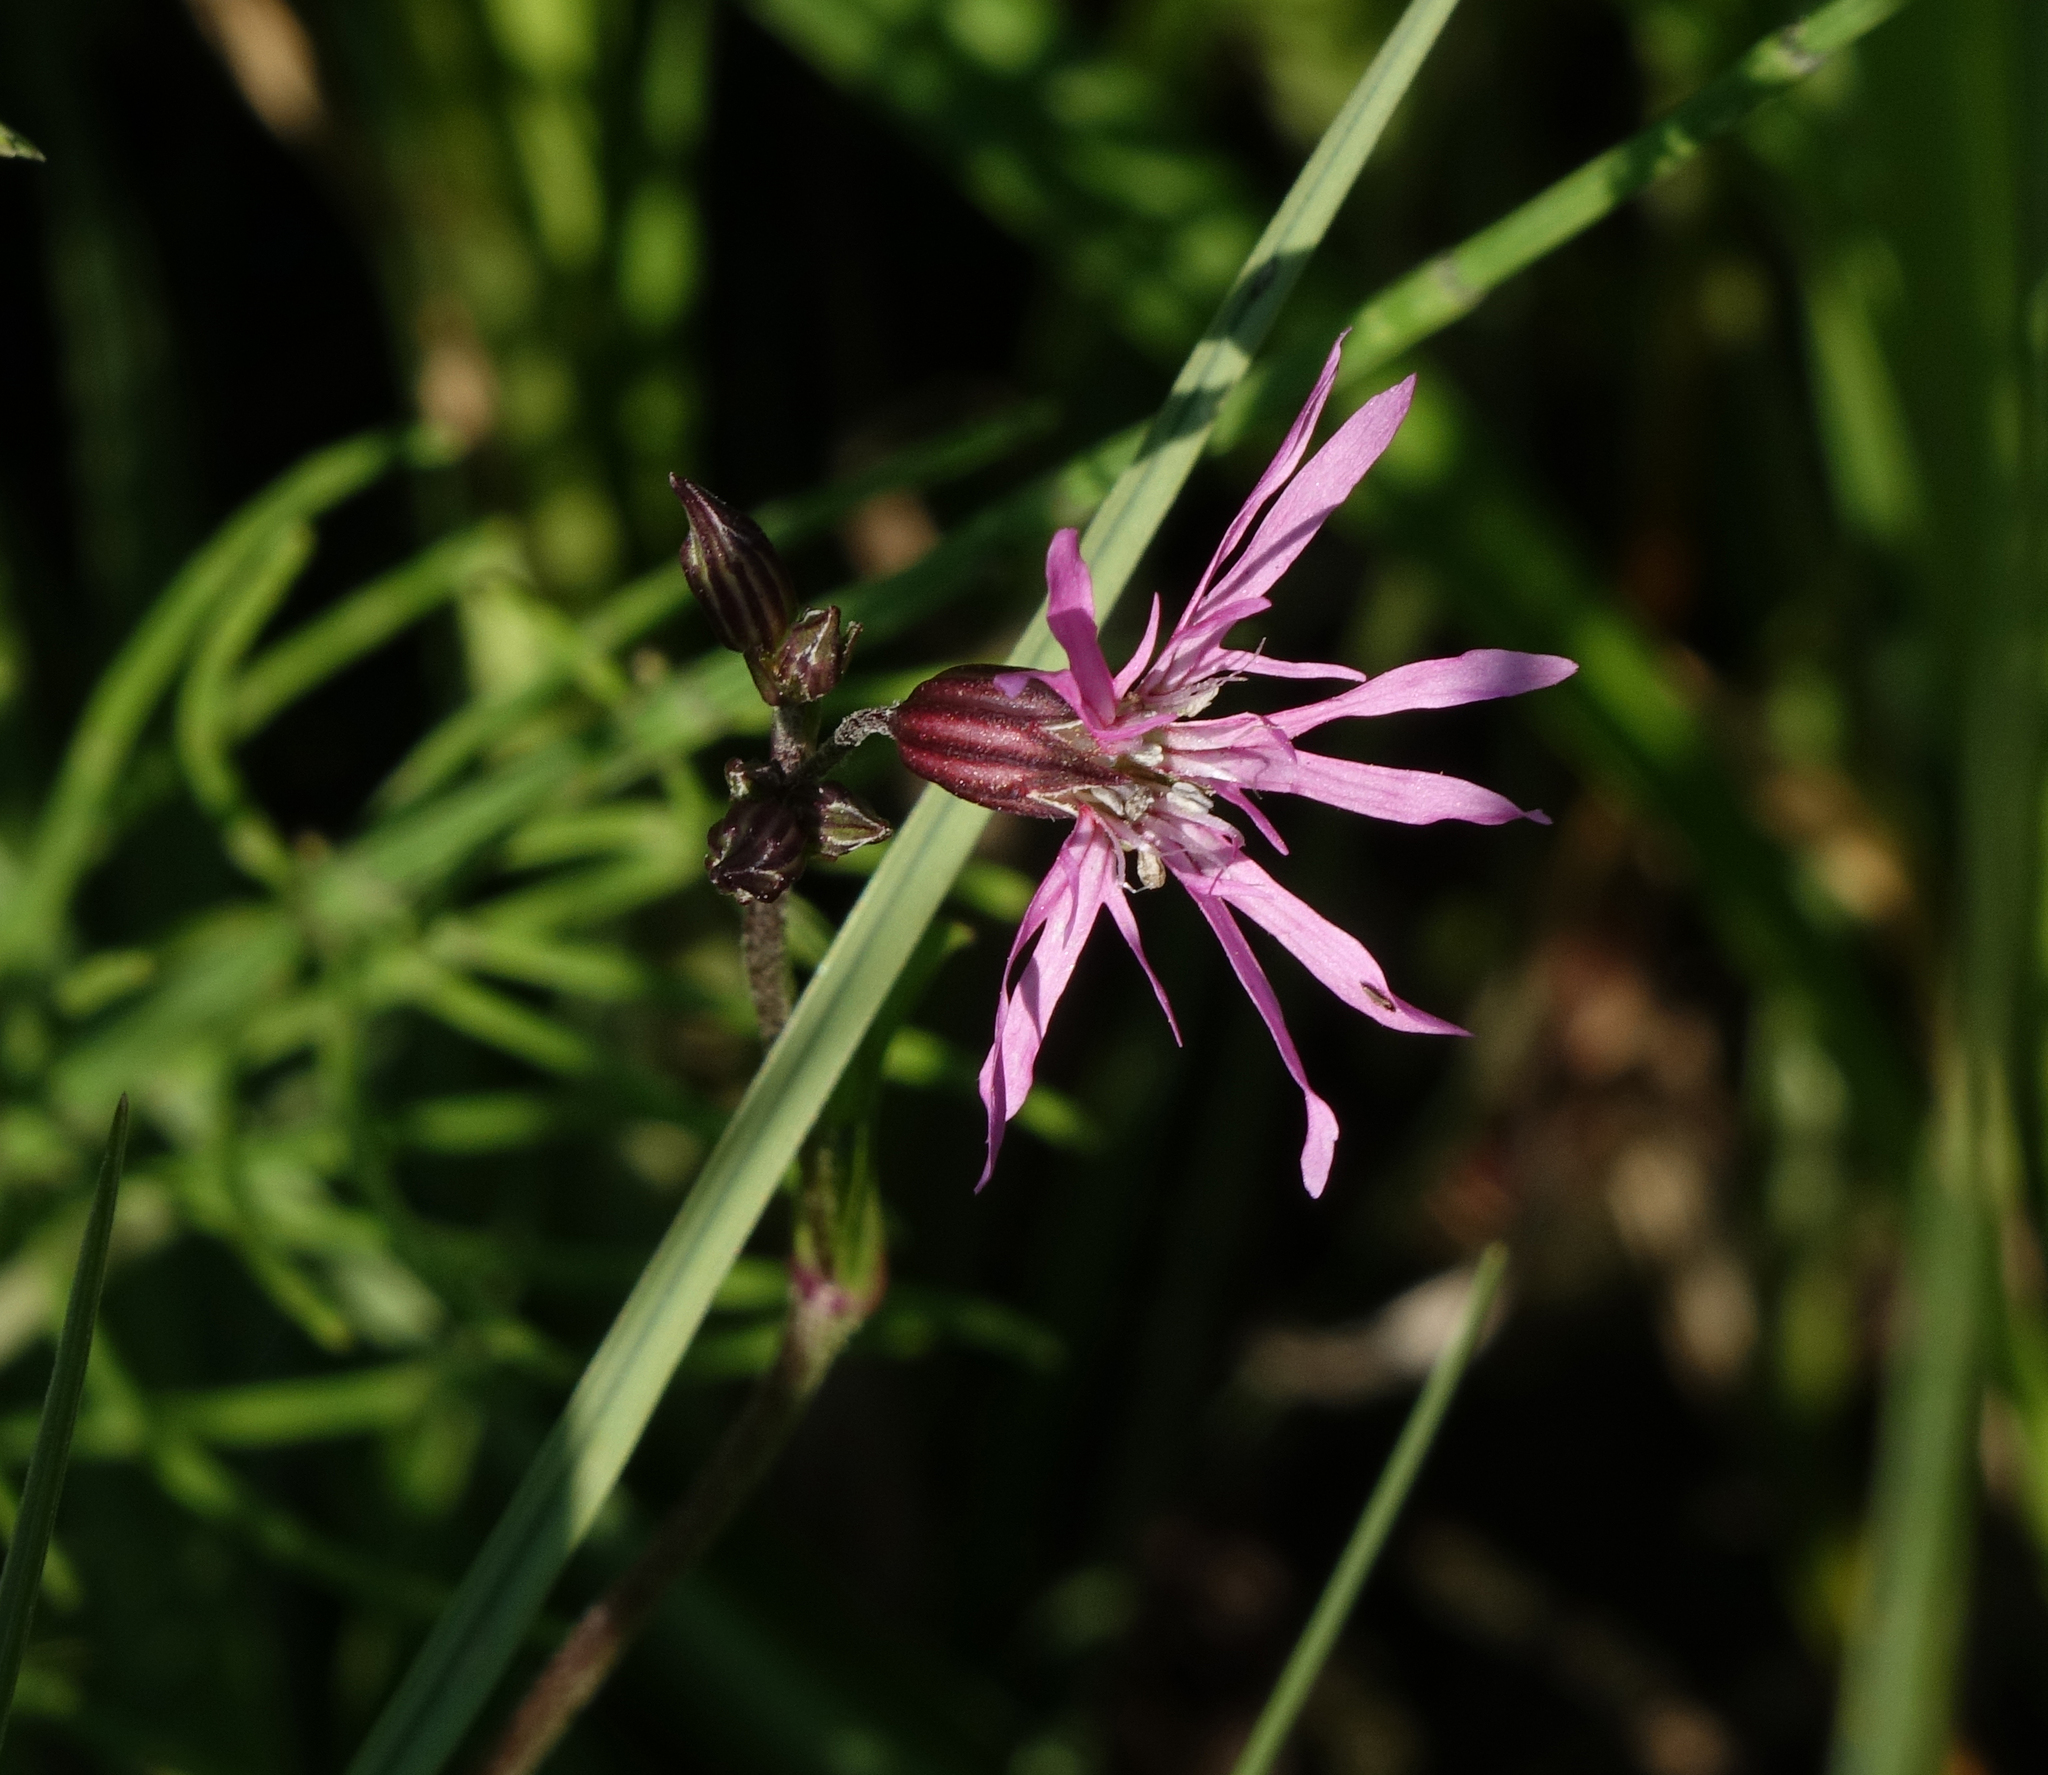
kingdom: Plantae
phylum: Tracheophyta
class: Magnoliopsida
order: Caryophyllales
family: Caryophyllaceae
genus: Silene
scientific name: Silene flos-cuculi
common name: Ragged-robin
